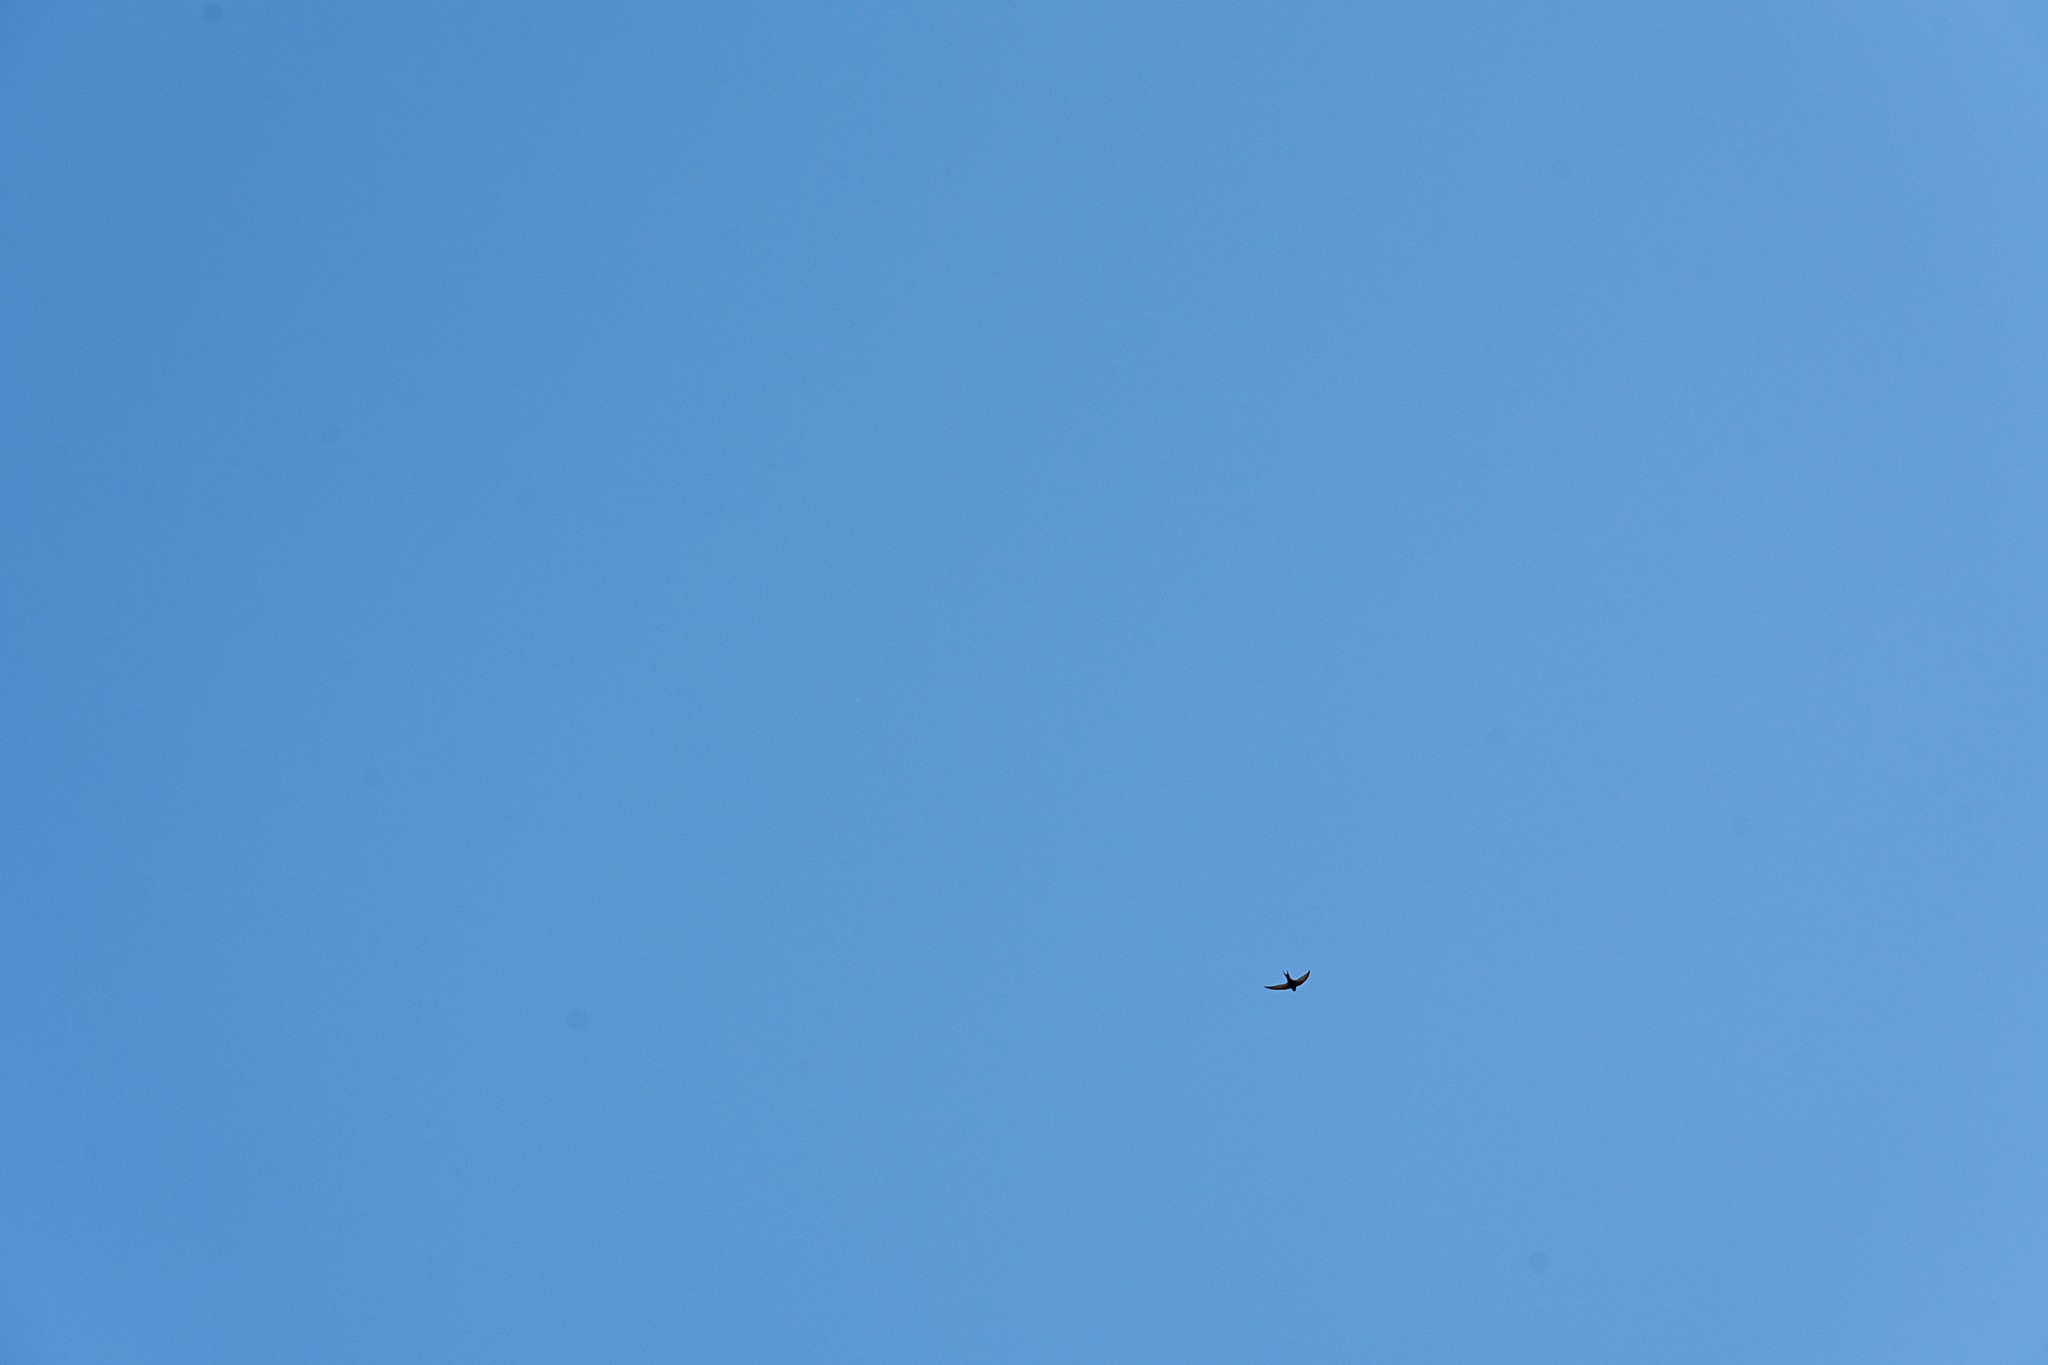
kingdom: Animalia
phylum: Chordata
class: Aves
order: Apodiformes
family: Apodidae
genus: Apus
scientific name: Apus apus
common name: Common swift
